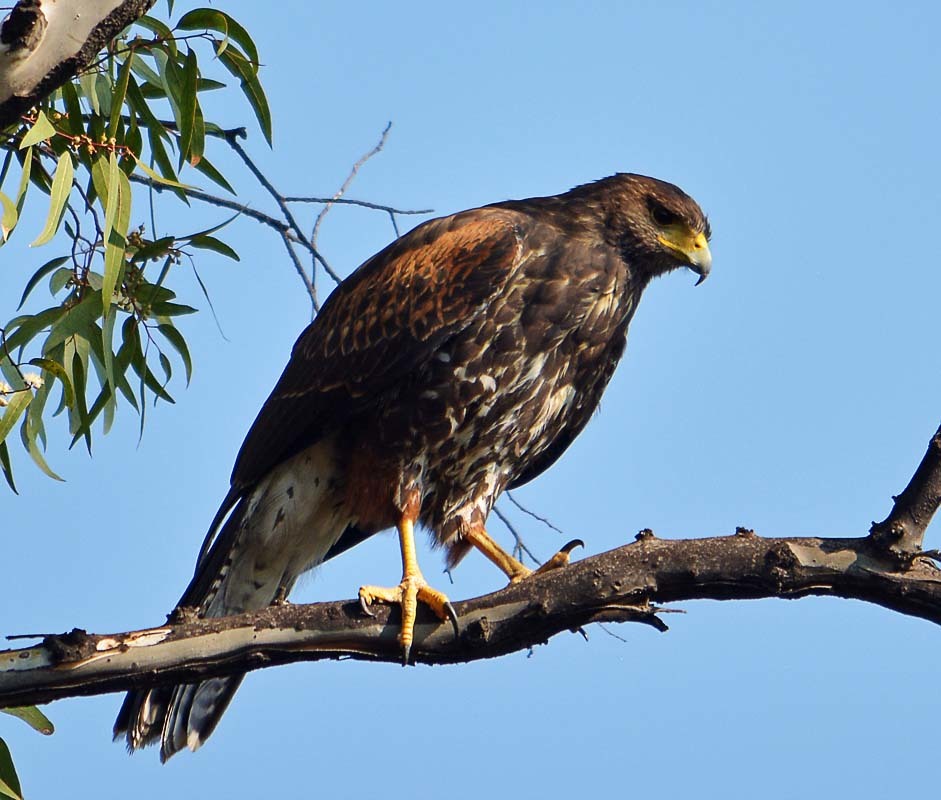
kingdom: Animalia
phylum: Chordata
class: Aves
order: Accipitriformes
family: Accipitridae
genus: Parabuteo
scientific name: Parabuteo unicinctus
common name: Harris's hawk
